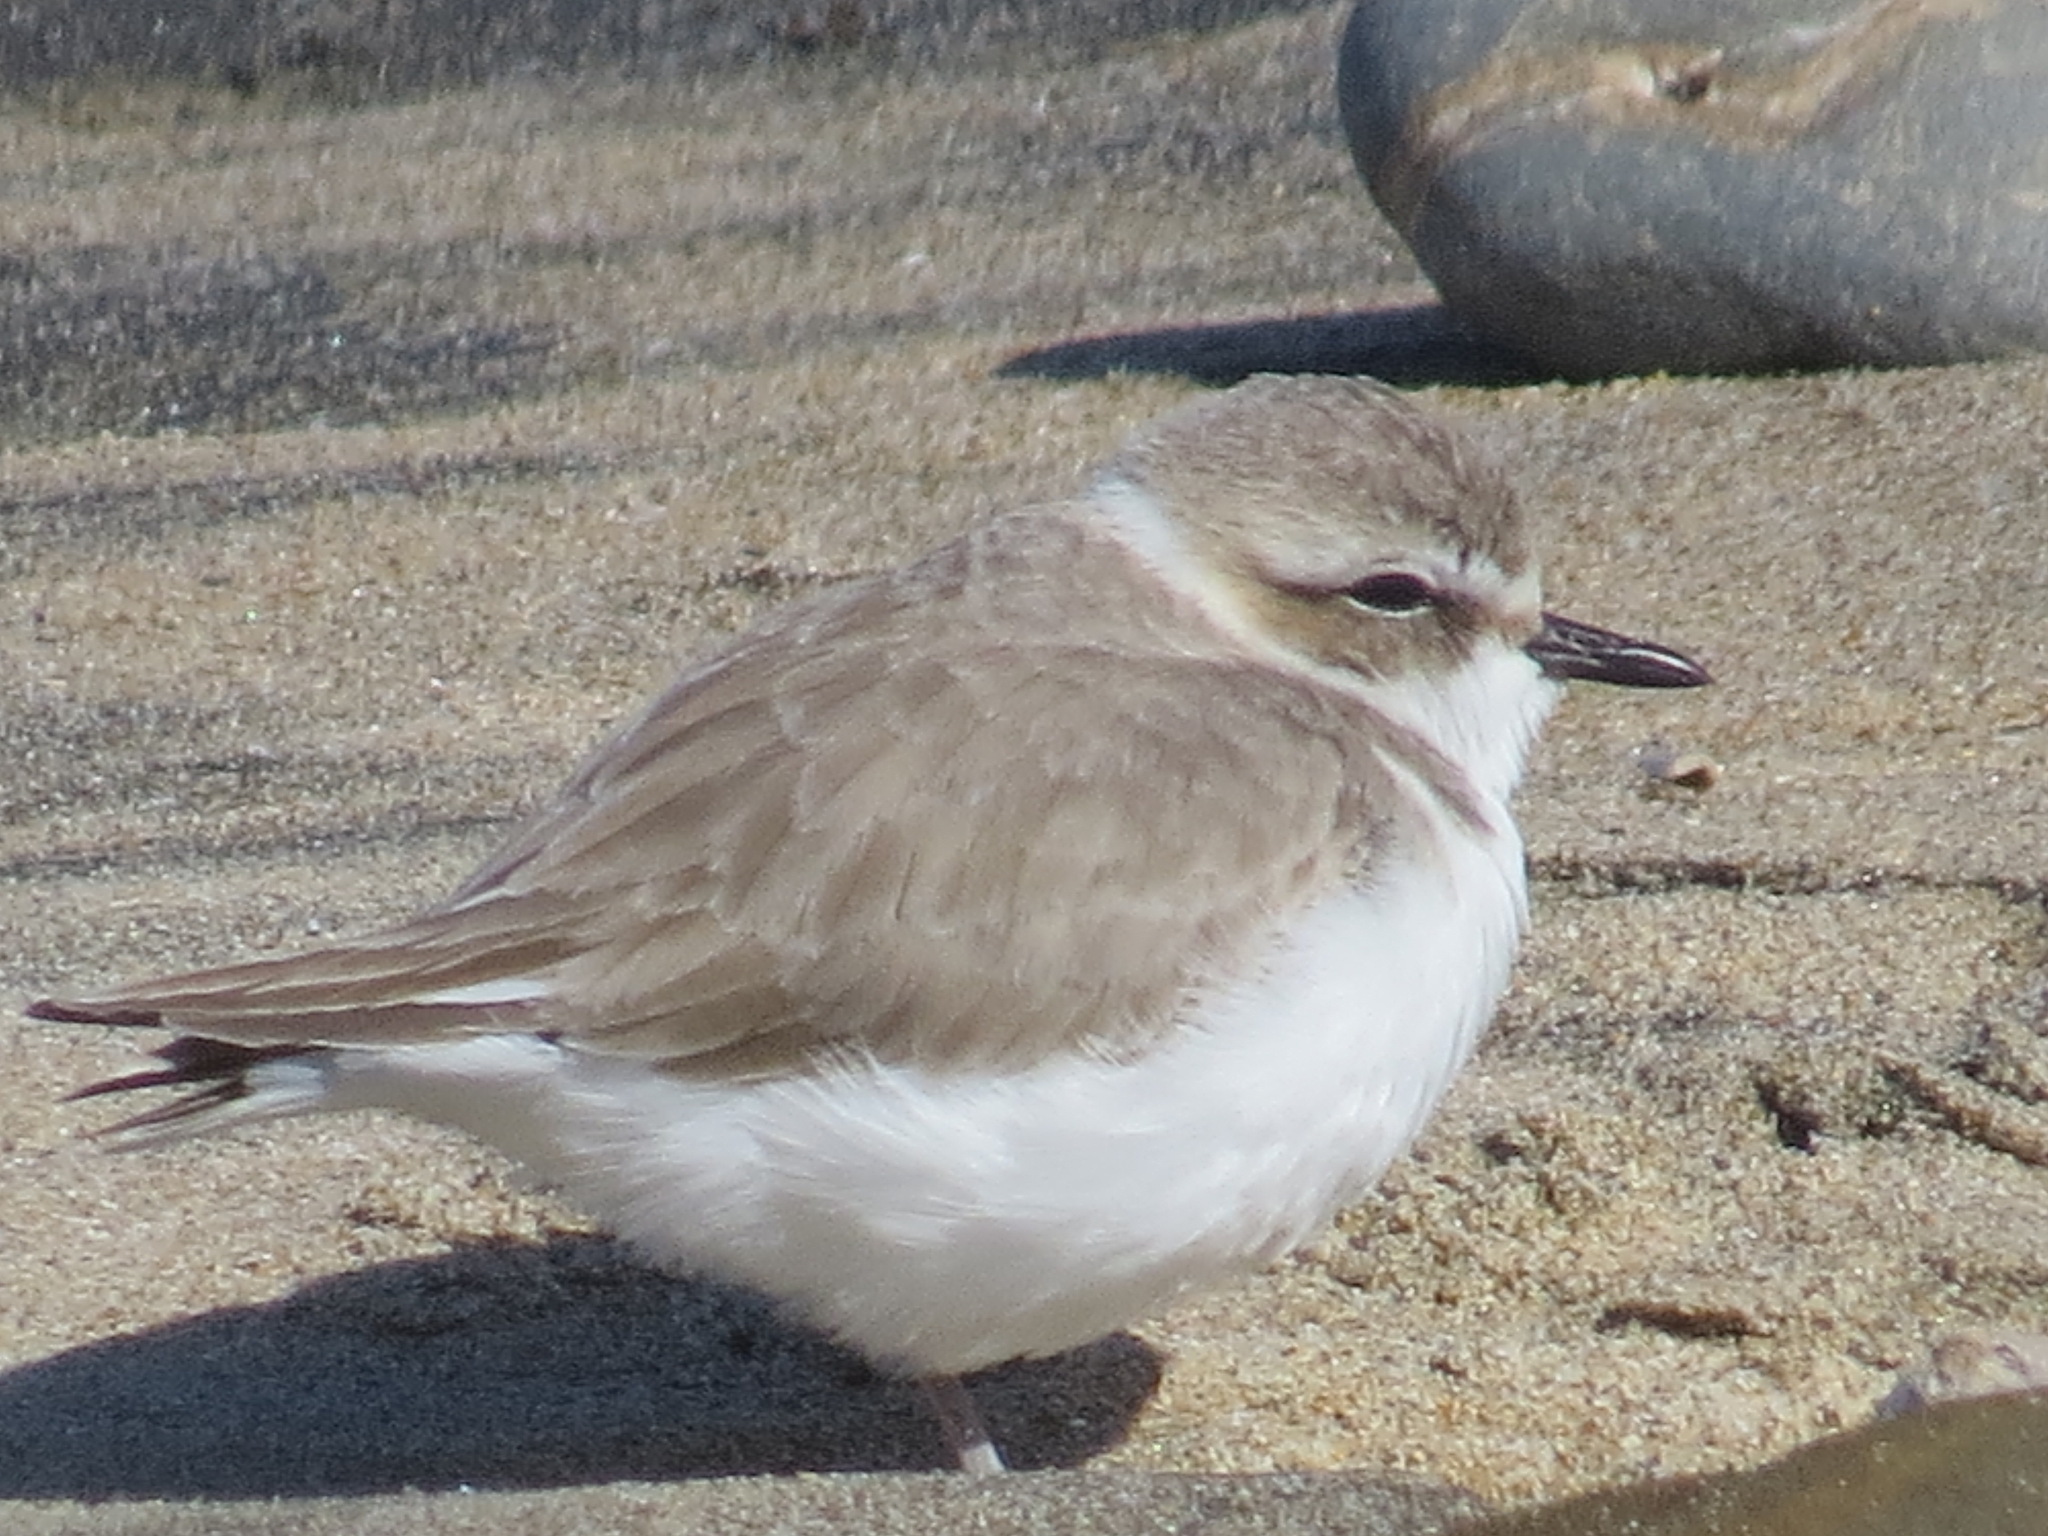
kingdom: Animalia
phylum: Chordata
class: Aves
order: Charadriiformes
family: Charadriidae
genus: Anarhynchus
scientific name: Anarhynchus
